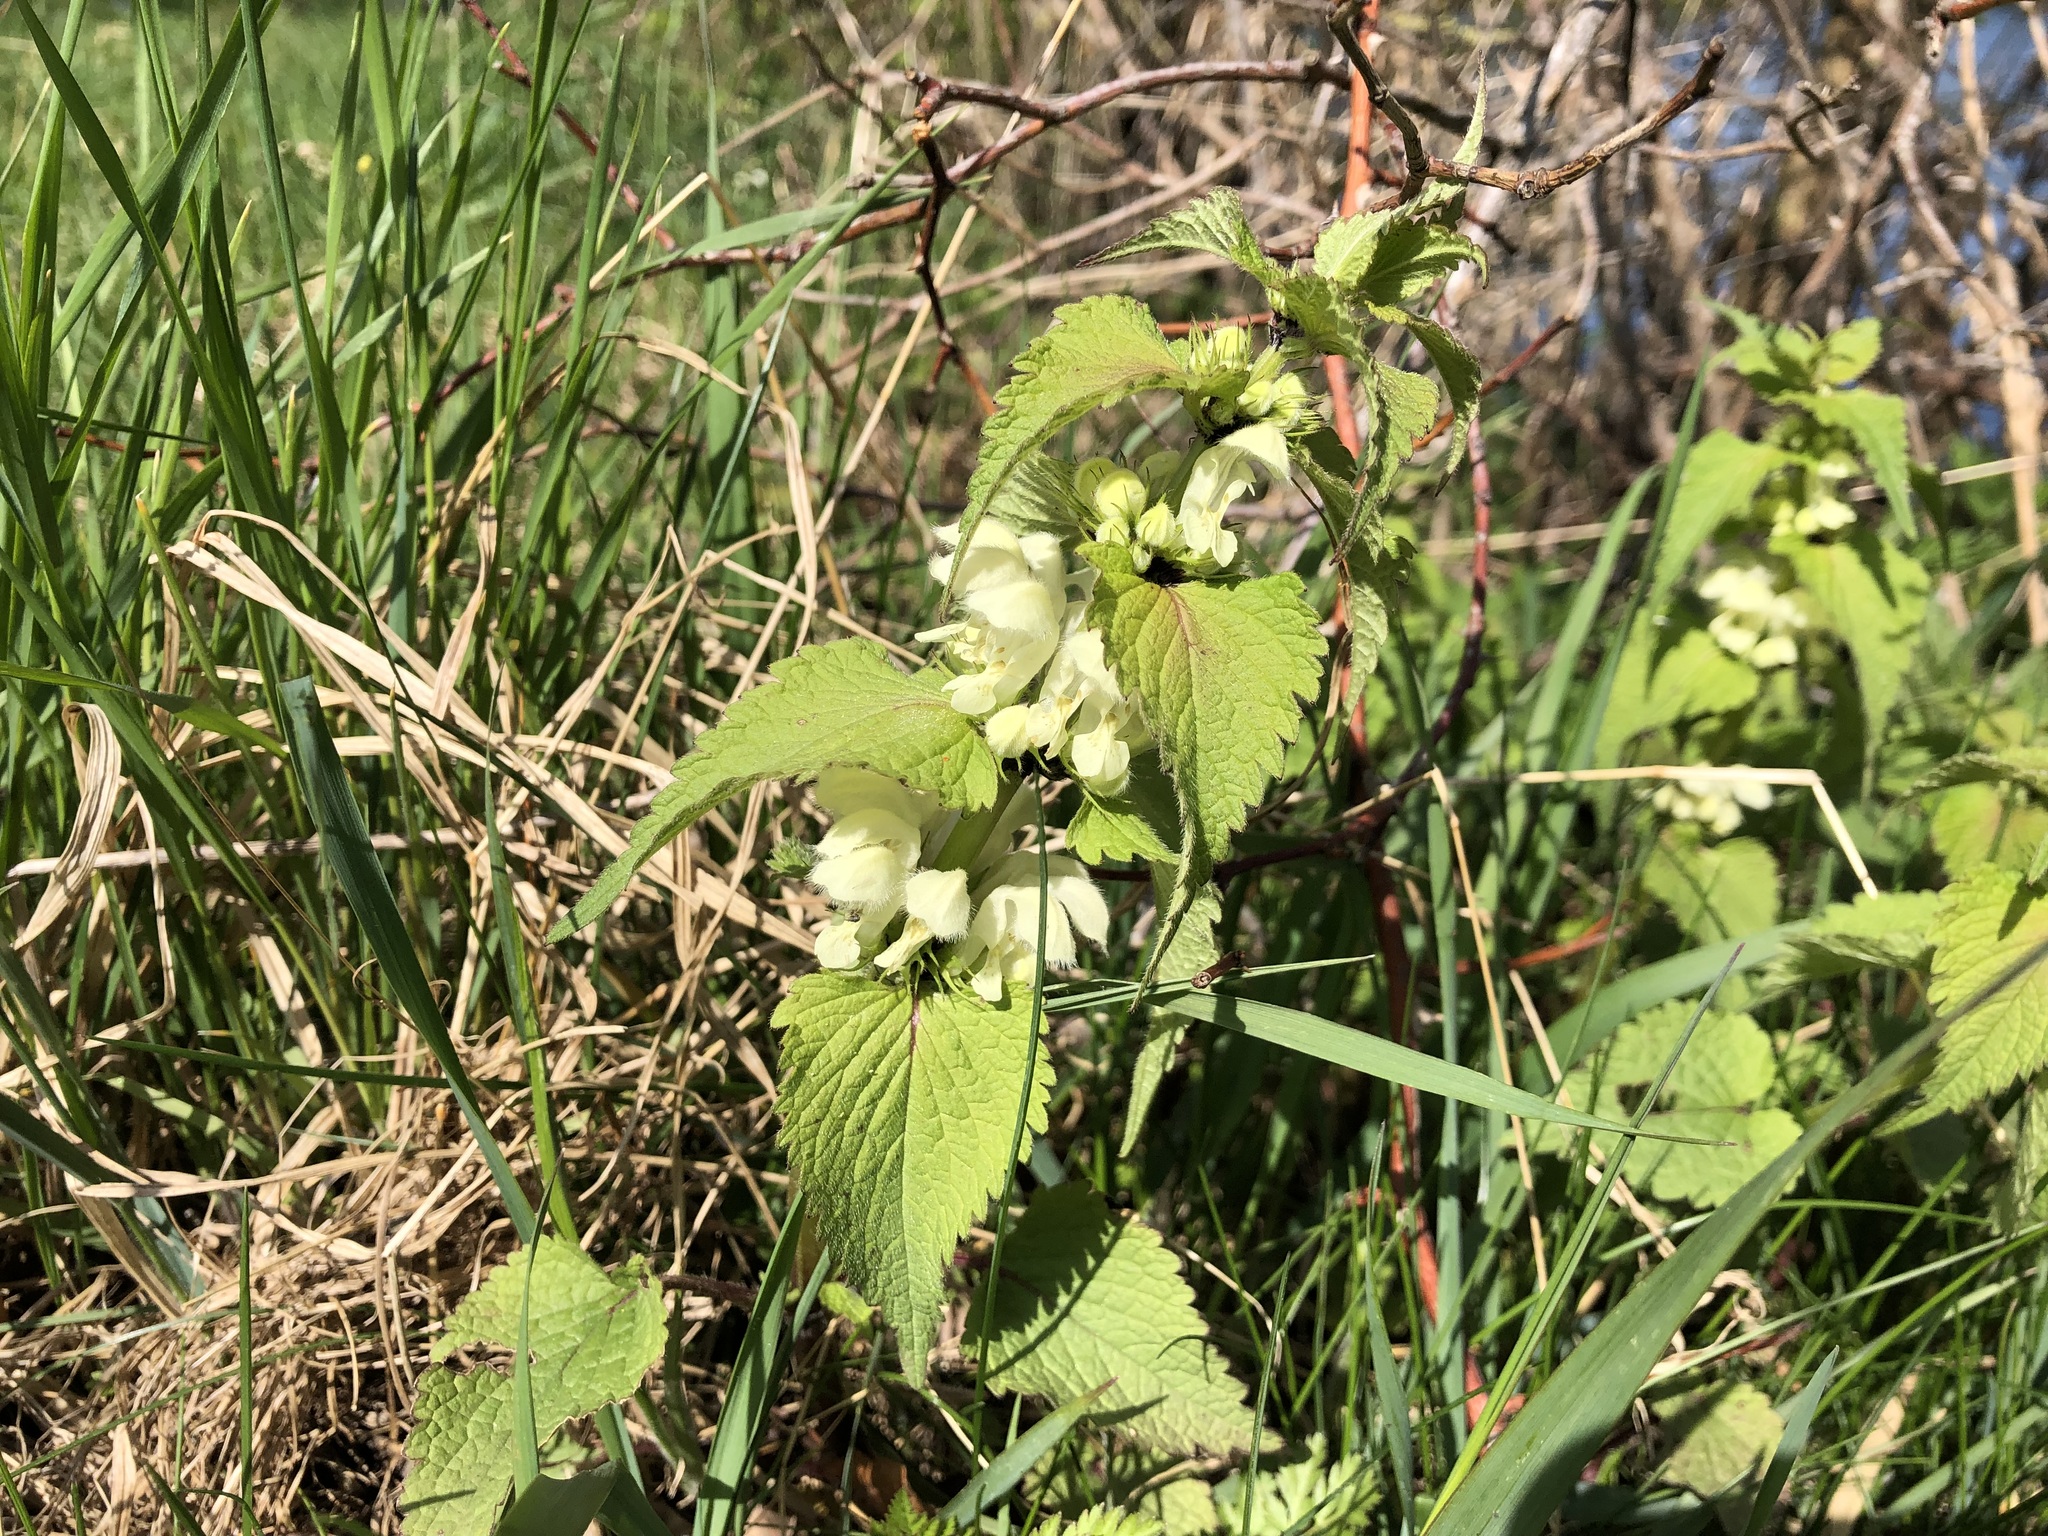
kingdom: Plantae
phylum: Tracheophyta
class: Magnoliopsida
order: Lamiales
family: Lamiaceae
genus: Lamium
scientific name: Lamium album
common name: White dead-nettle
